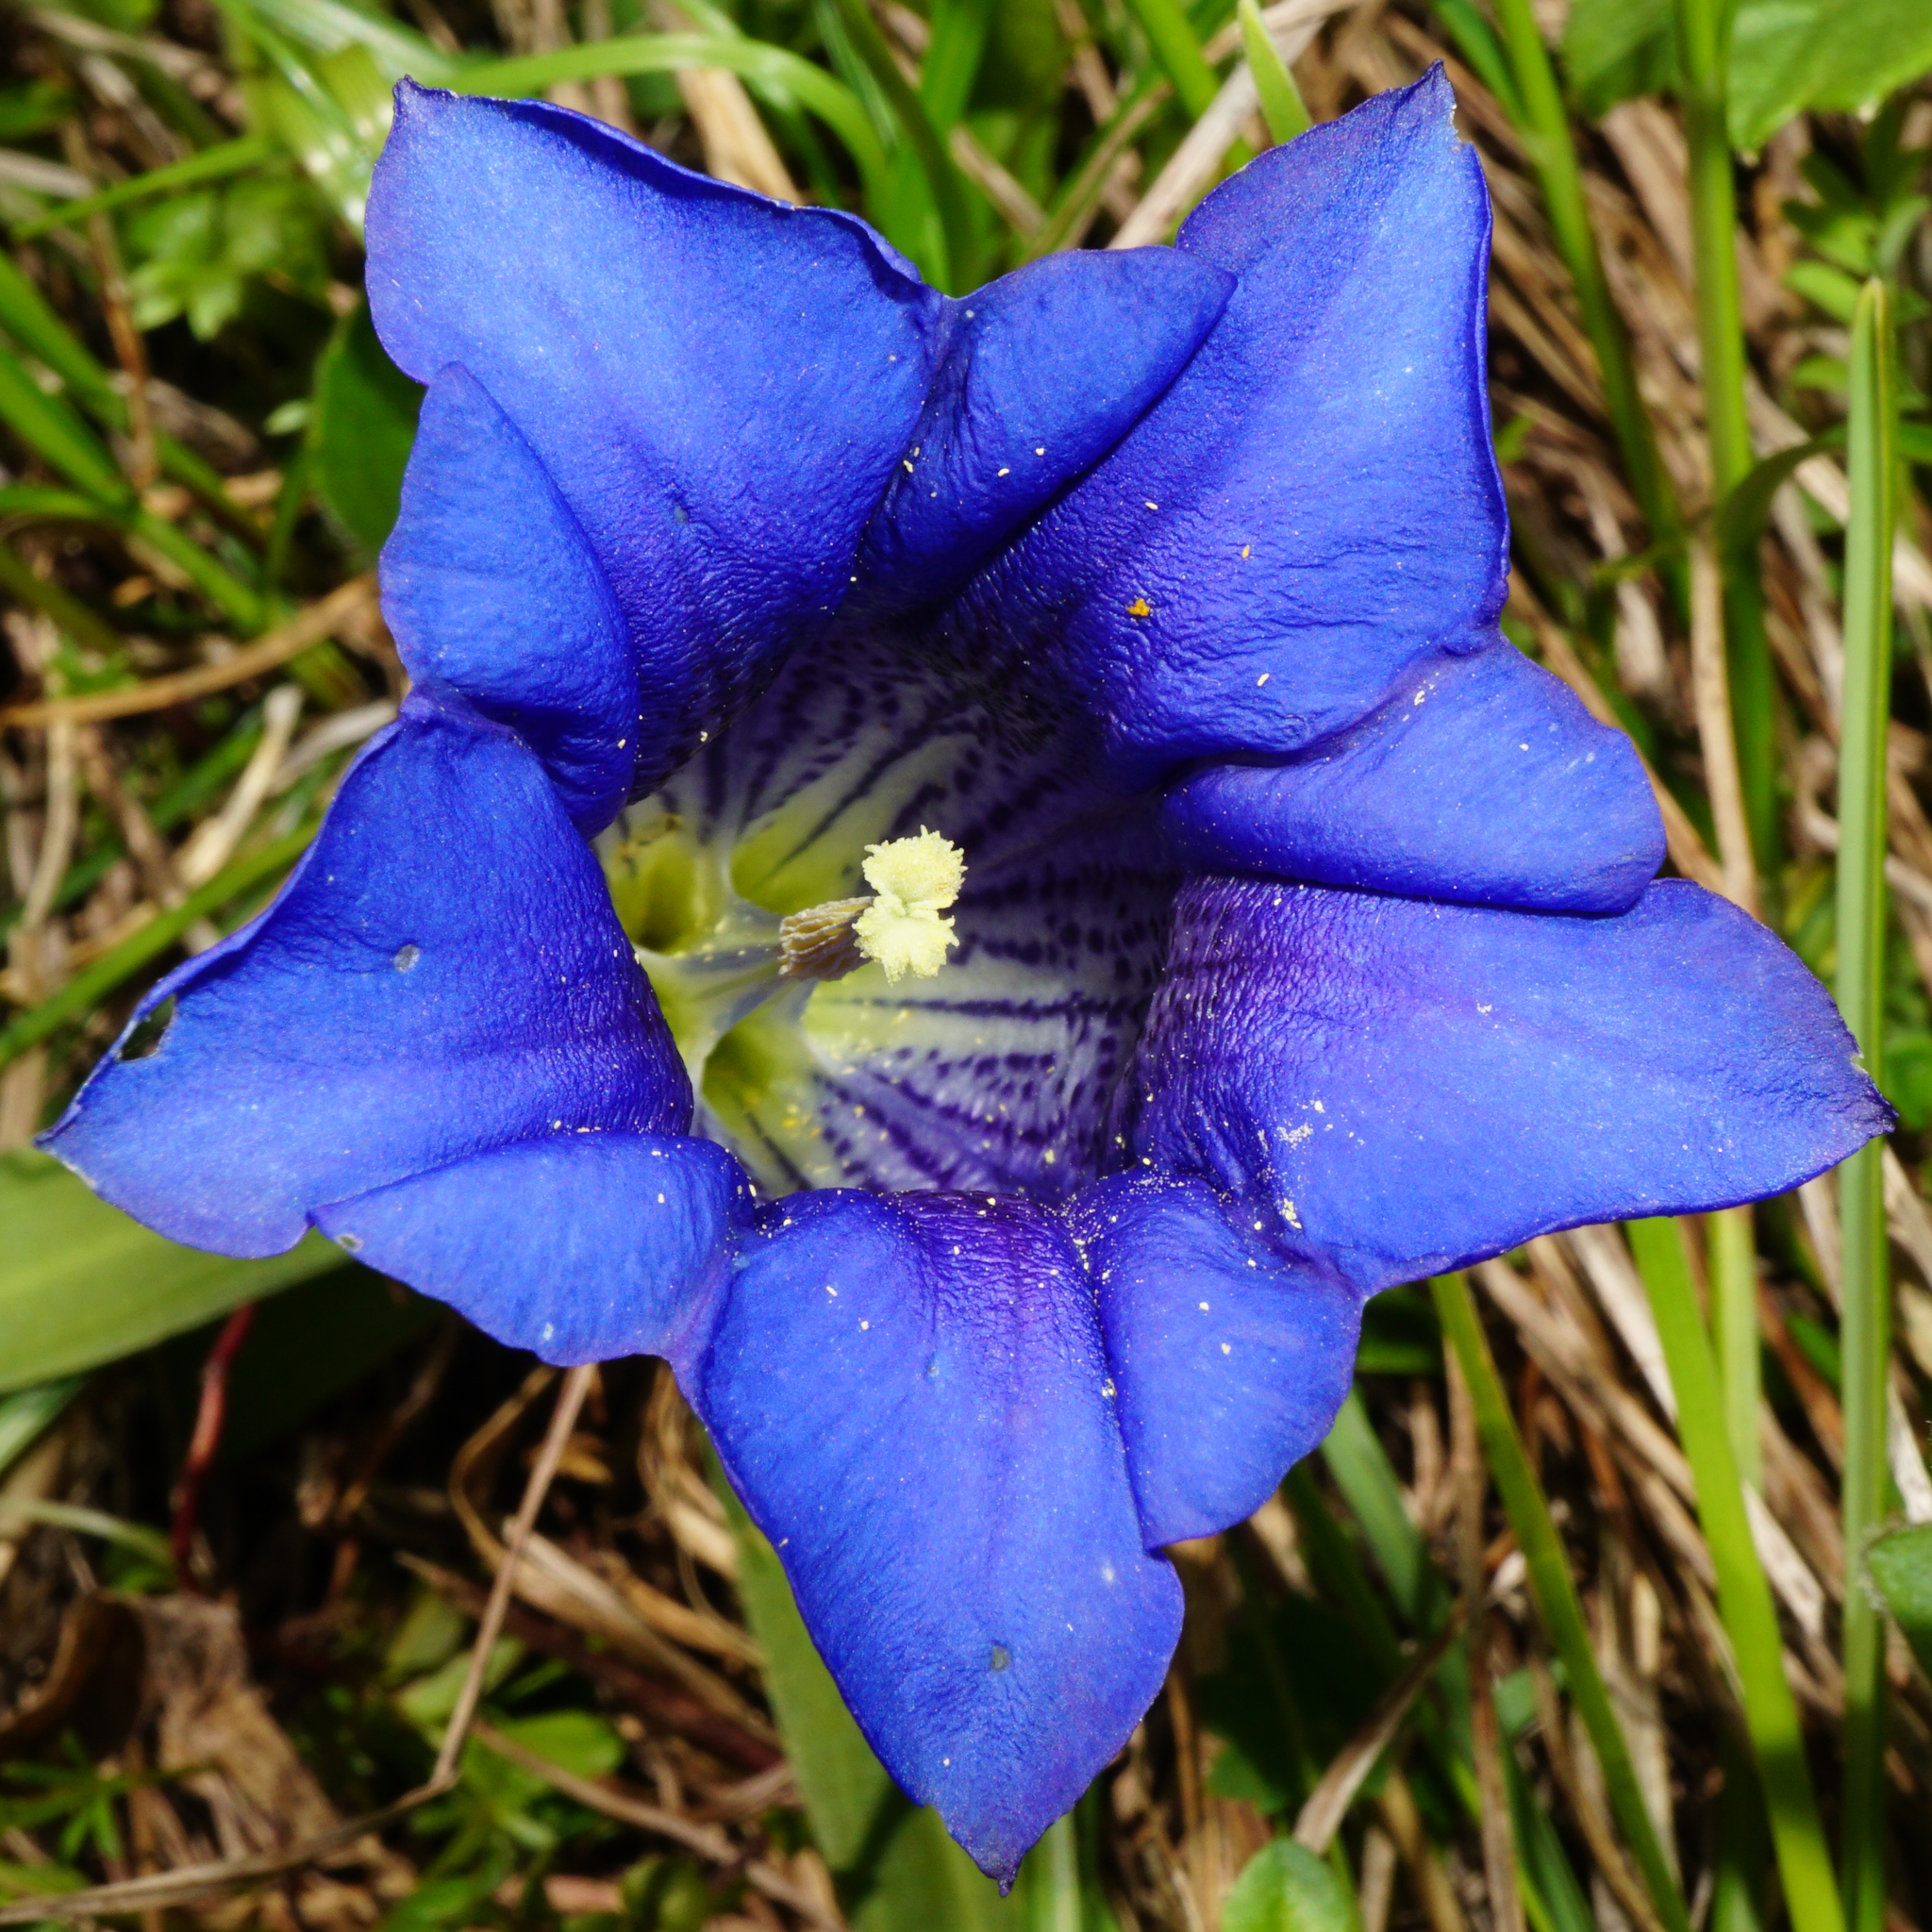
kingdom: Plantae
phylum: Tracheophyta
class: Magnoliopsida
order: Gentianales
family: Gentianaceae
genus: Gentiana
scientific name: Gentiana clusii
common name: Trumpet gentian
